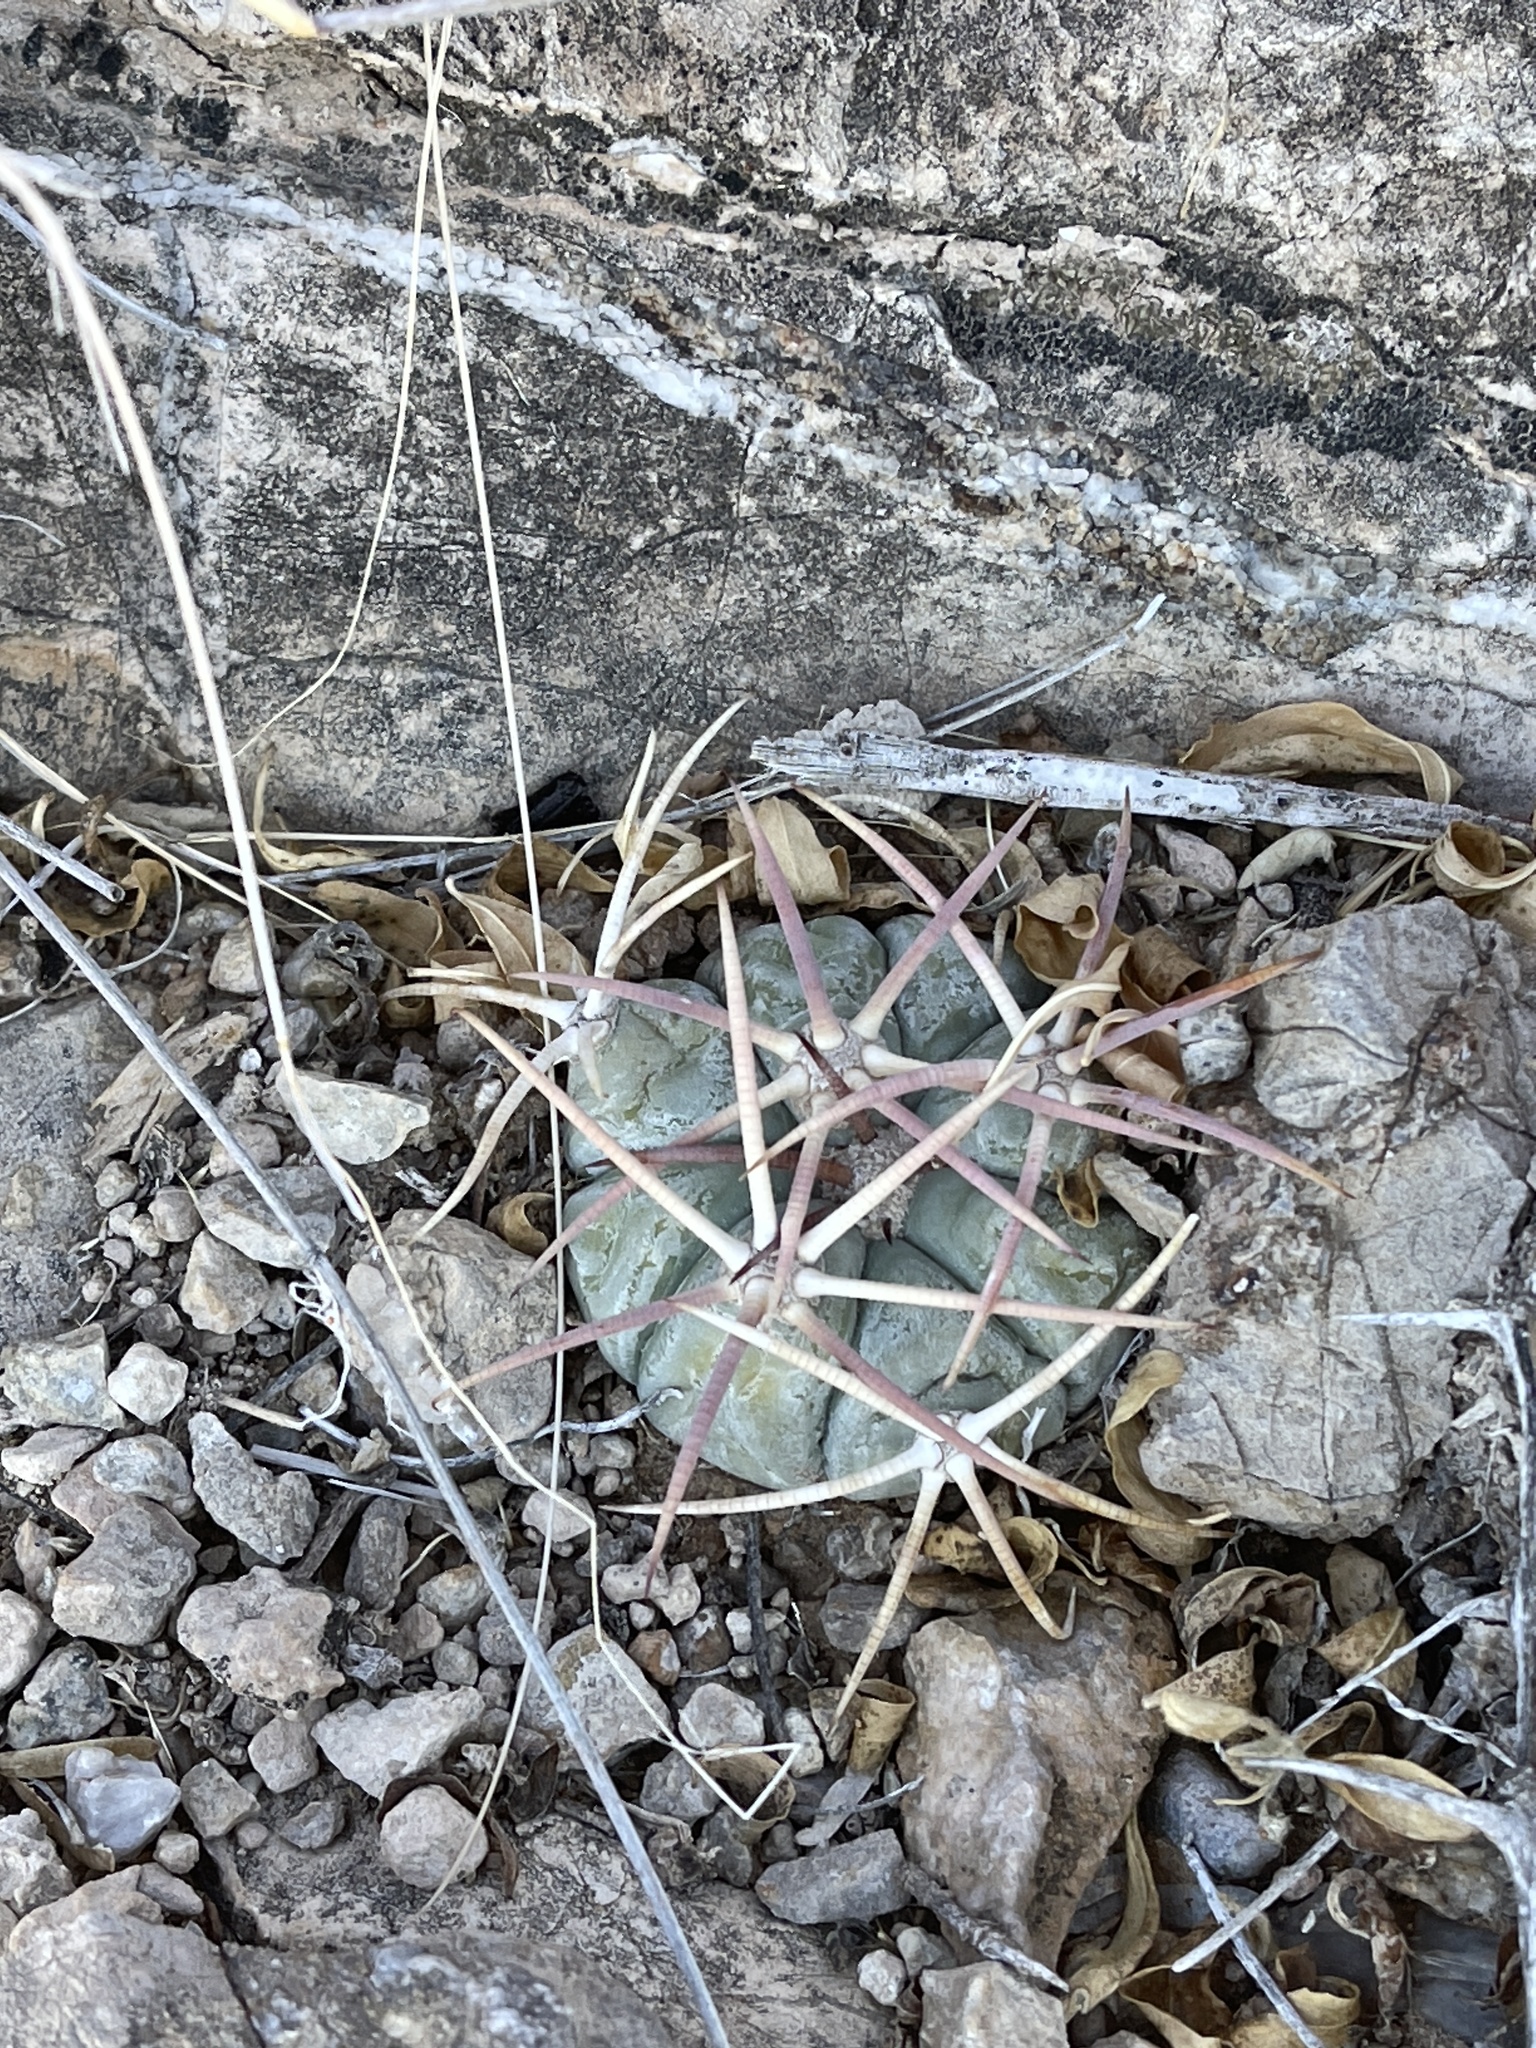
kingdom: Plantae
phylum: Tracheophyta
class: Magnoliopsida
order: Caryophyllales
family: Cactaceae
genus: Echinocactus
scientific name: Echinocactus horizonthalonius
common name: Devilshead
